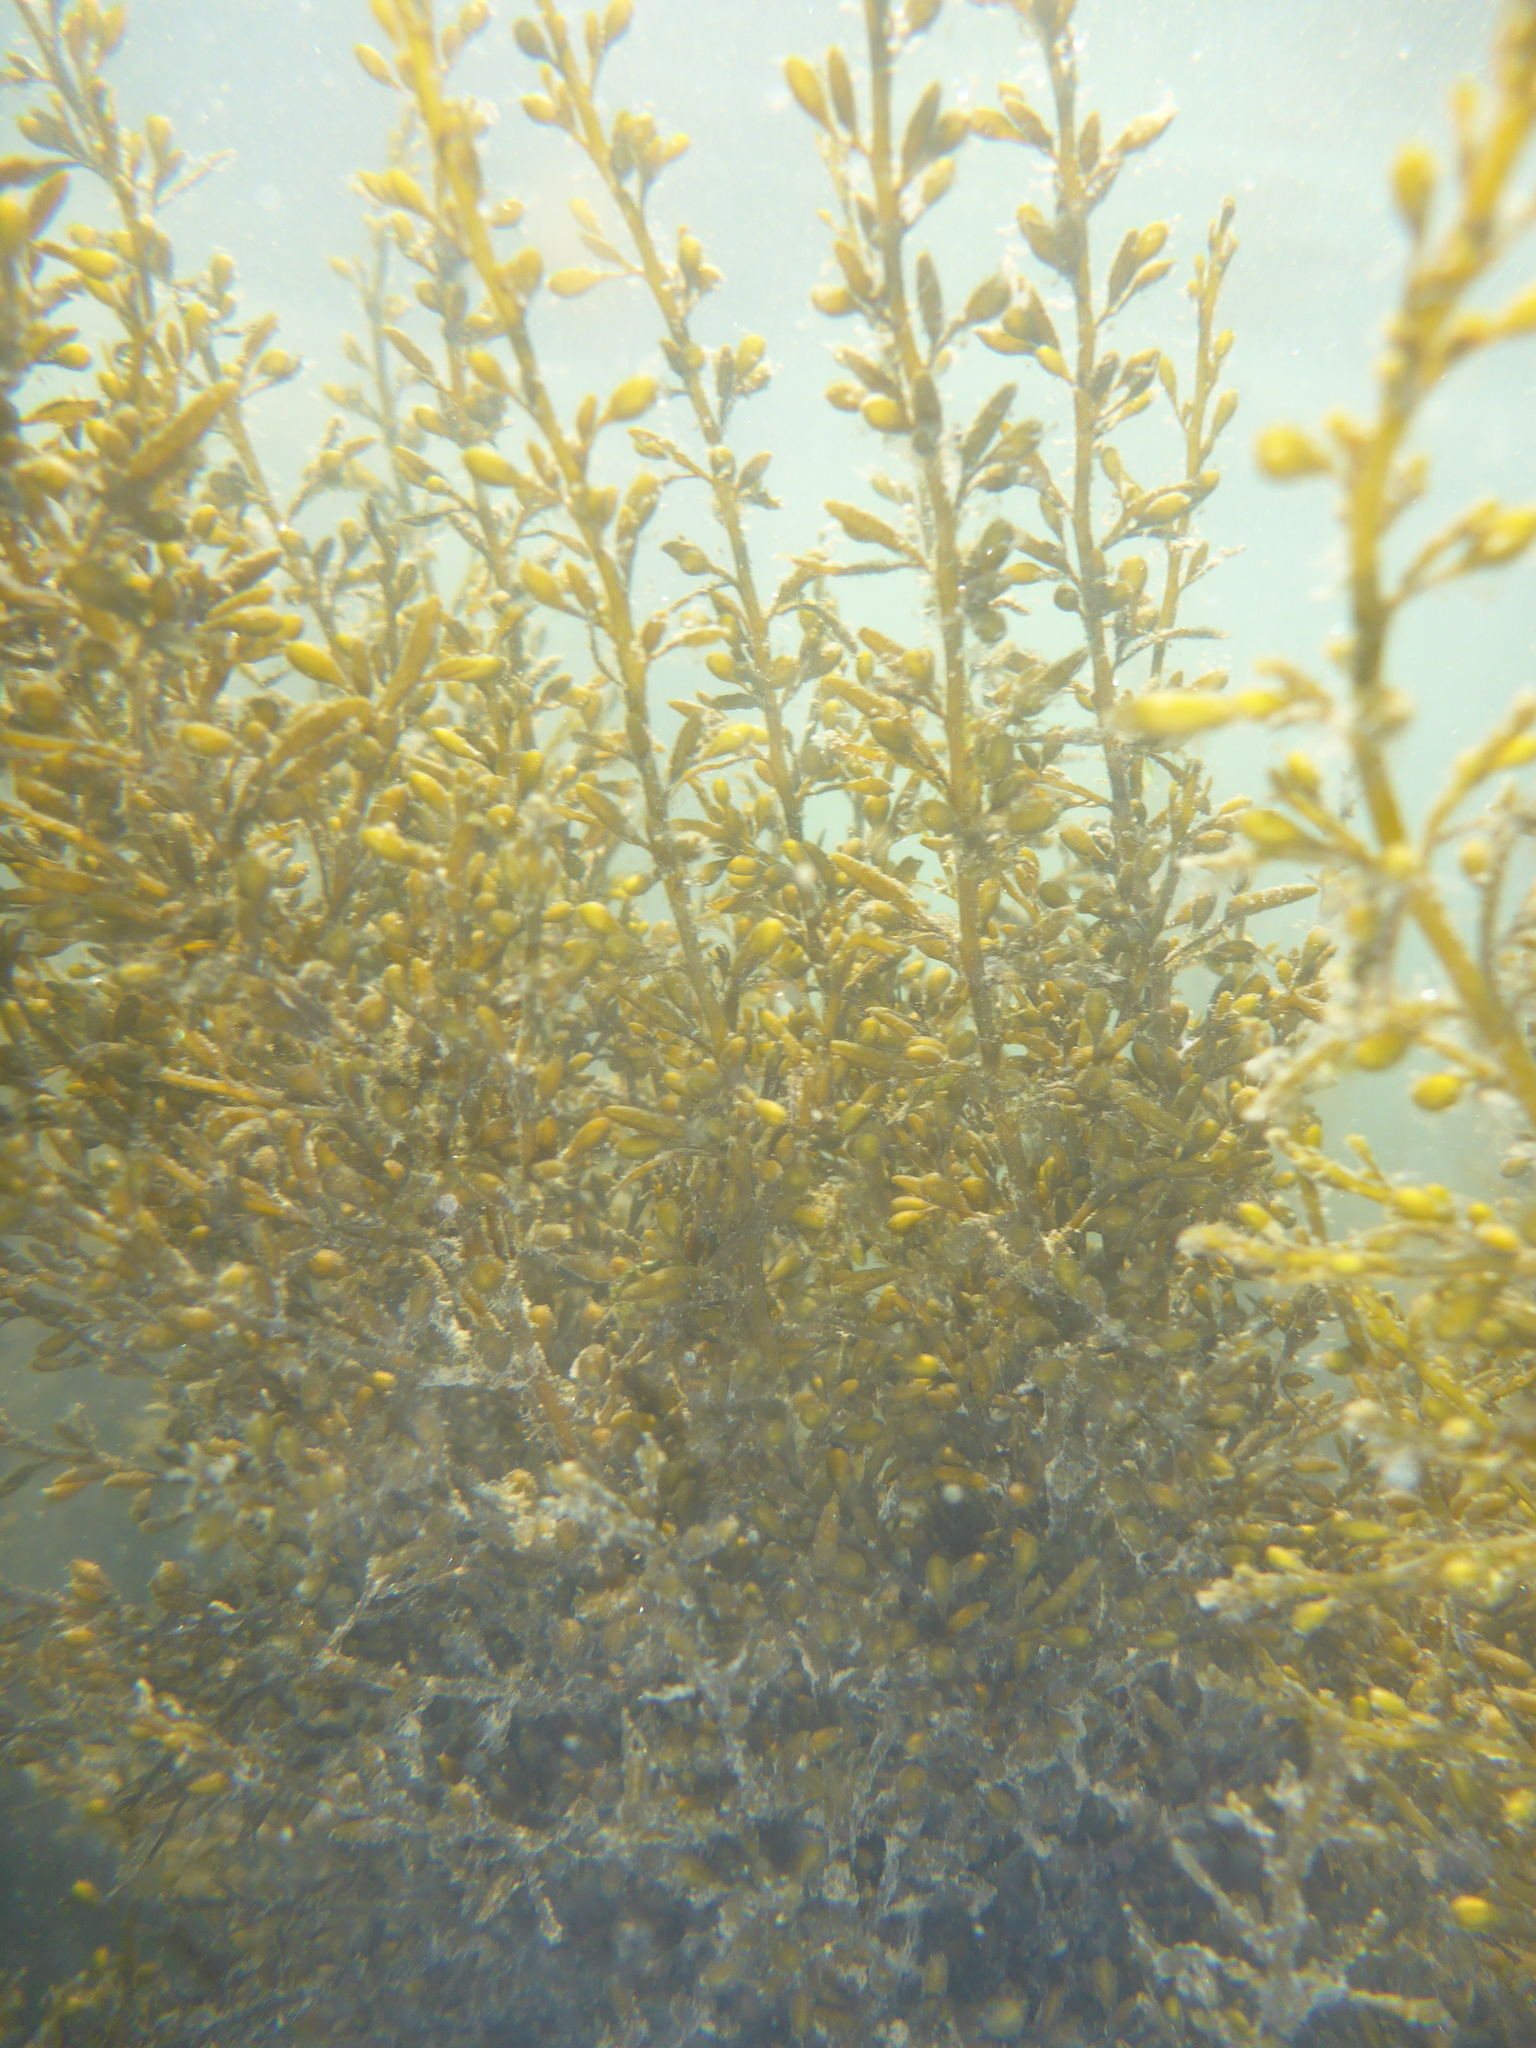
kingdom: Chromista
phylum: Ochrophyta
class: Phaeophyceae
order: Fucales
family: Sargassaceae
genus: Sargassum
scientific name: Sargassum muticum
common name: Japweed
